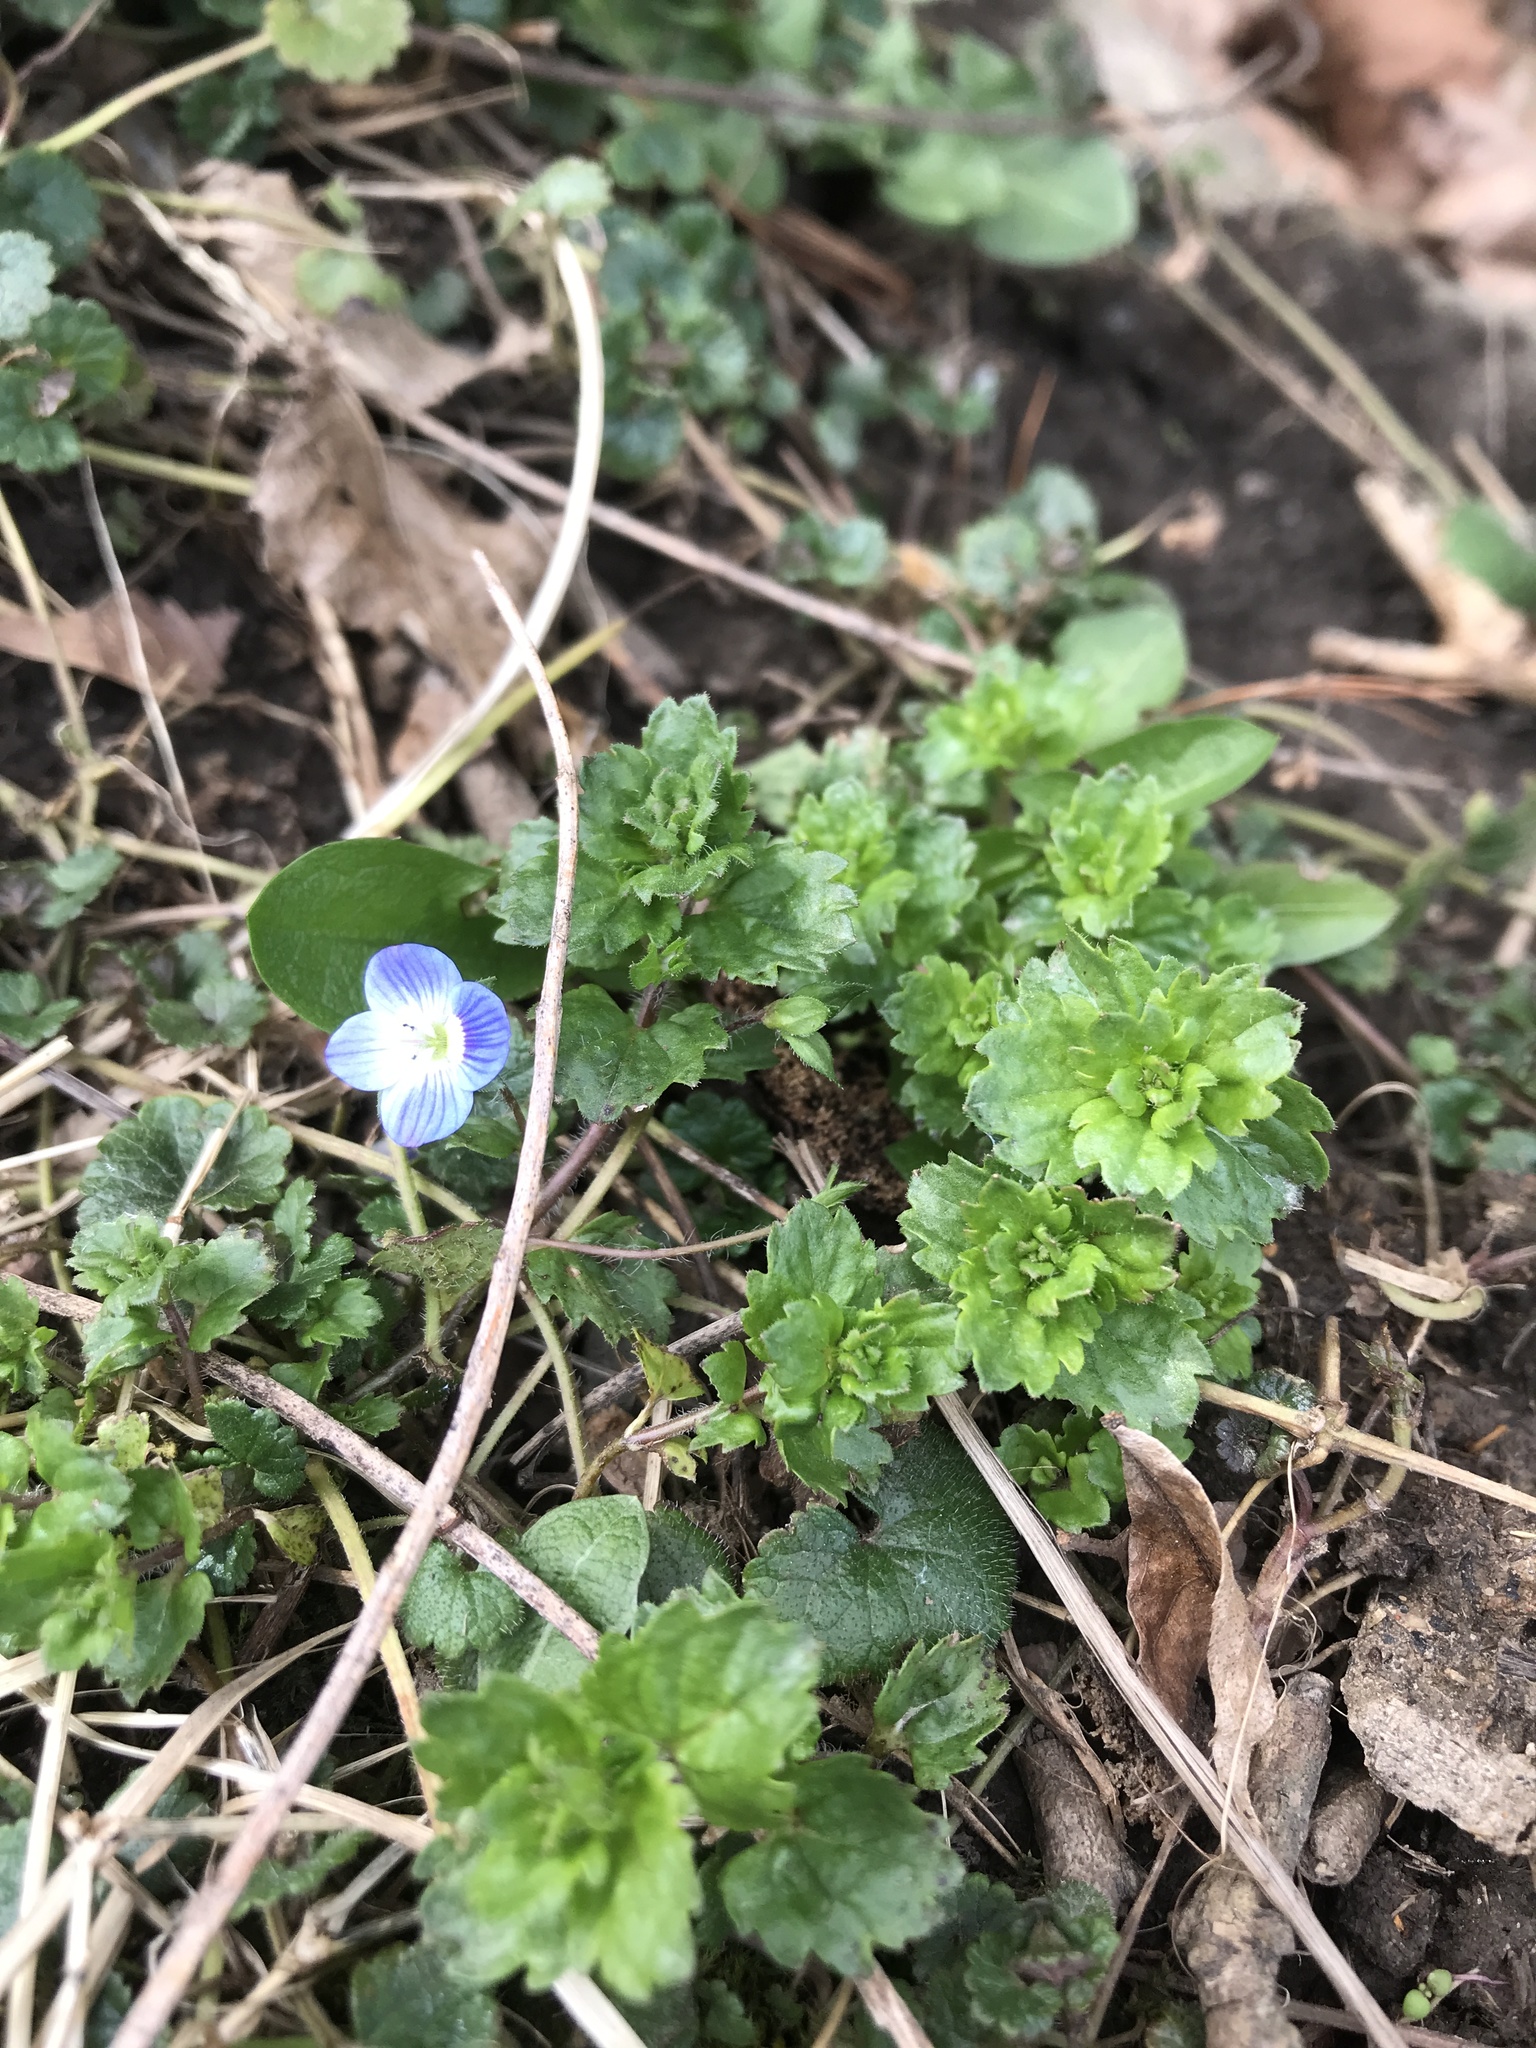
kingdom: Plantae
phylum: Tracheophyta
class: Magnoliopsida
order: Lamiales
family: Plantaginaceae
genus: Veronica
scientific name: Veronica persica
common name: Common field-speedwell
